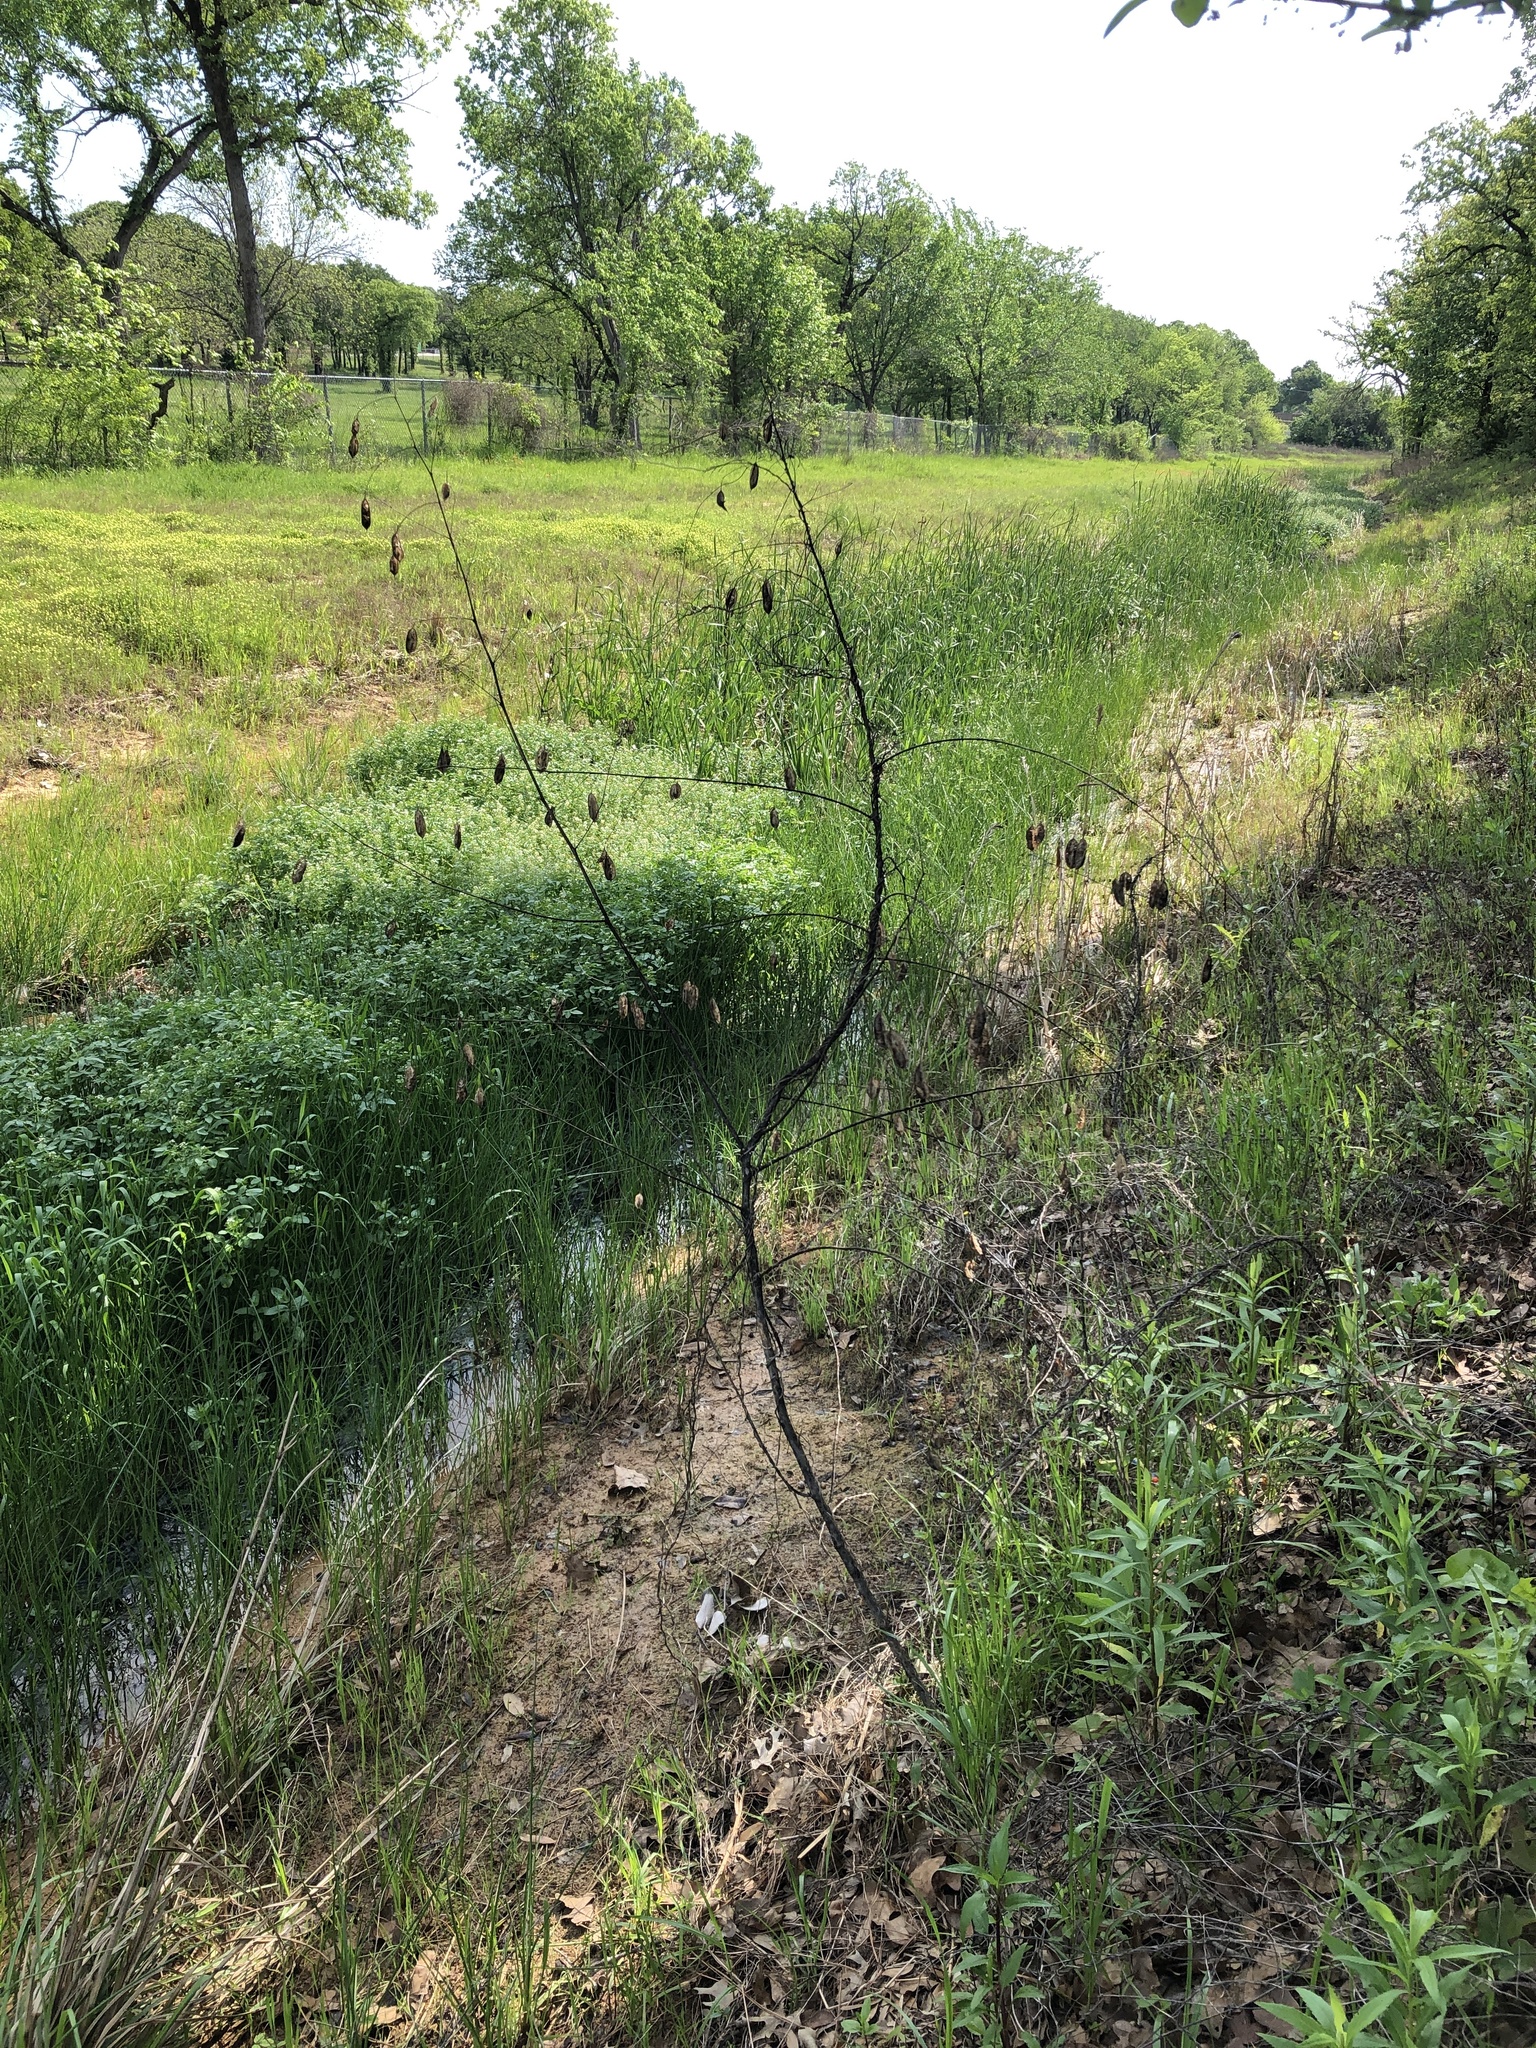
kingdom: Plantae
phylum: Tracheophyta
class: Magnoliopsida
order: Fabales
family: Fabaceae
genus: Sesbania
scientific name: Sesbania vesicaria
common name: Bagpod
